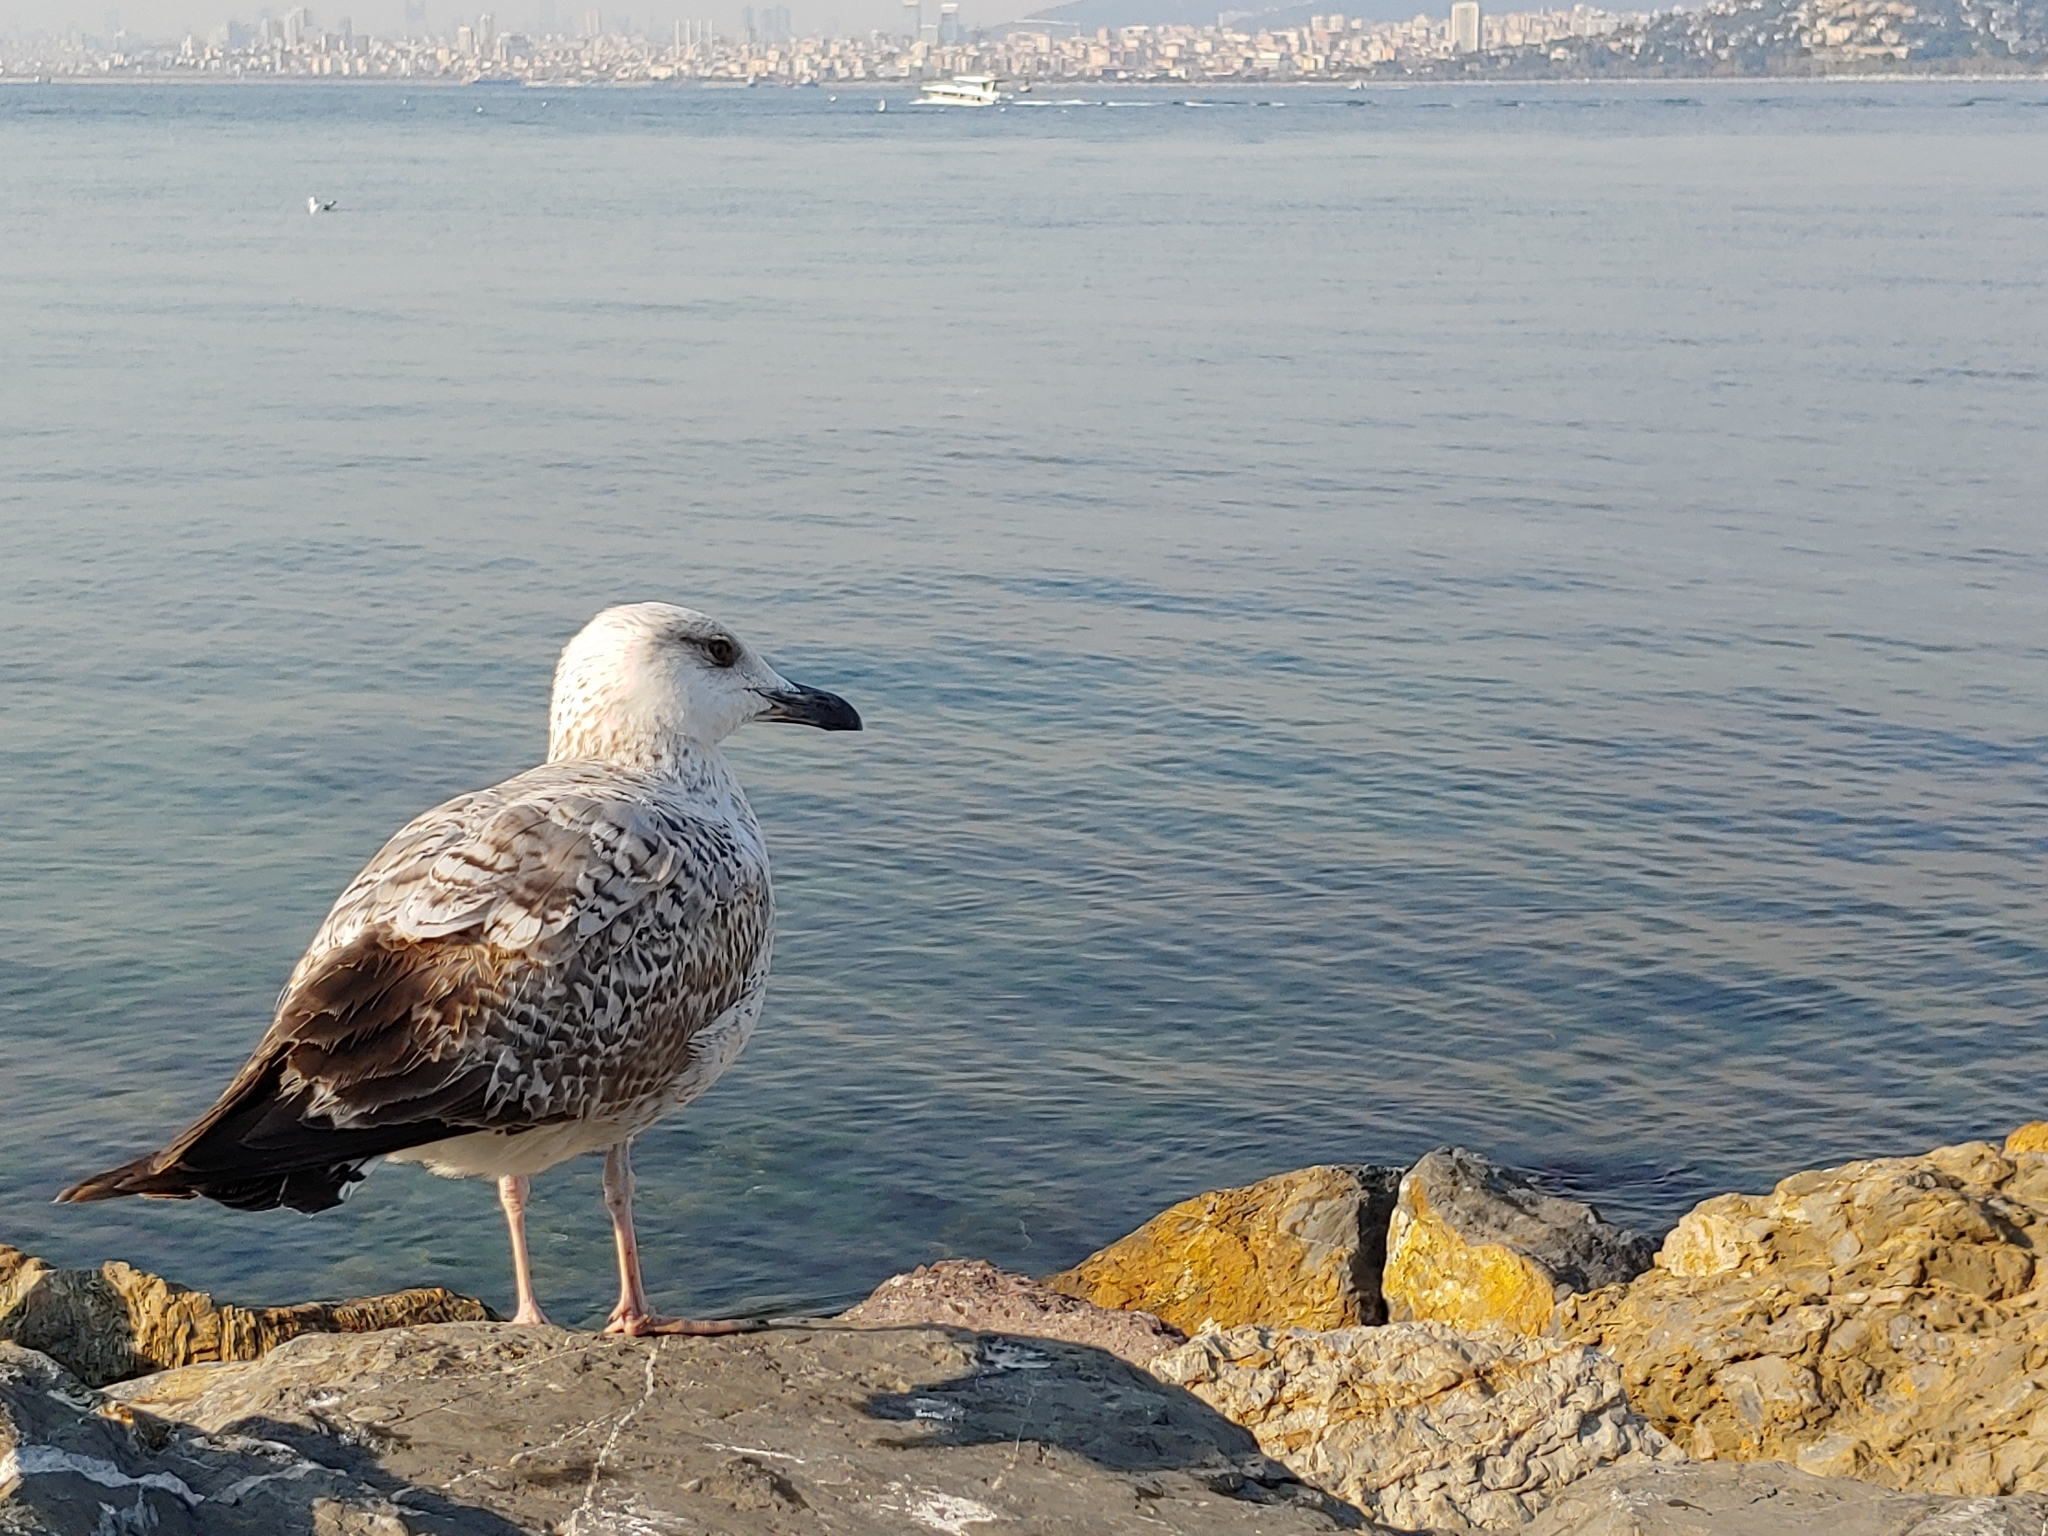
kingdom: Animalia
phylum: Chordata
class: Aves
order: Charadriiformes
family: Laridae
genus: Larus
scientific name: Larus michahellis
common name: Yellow-legged gull
